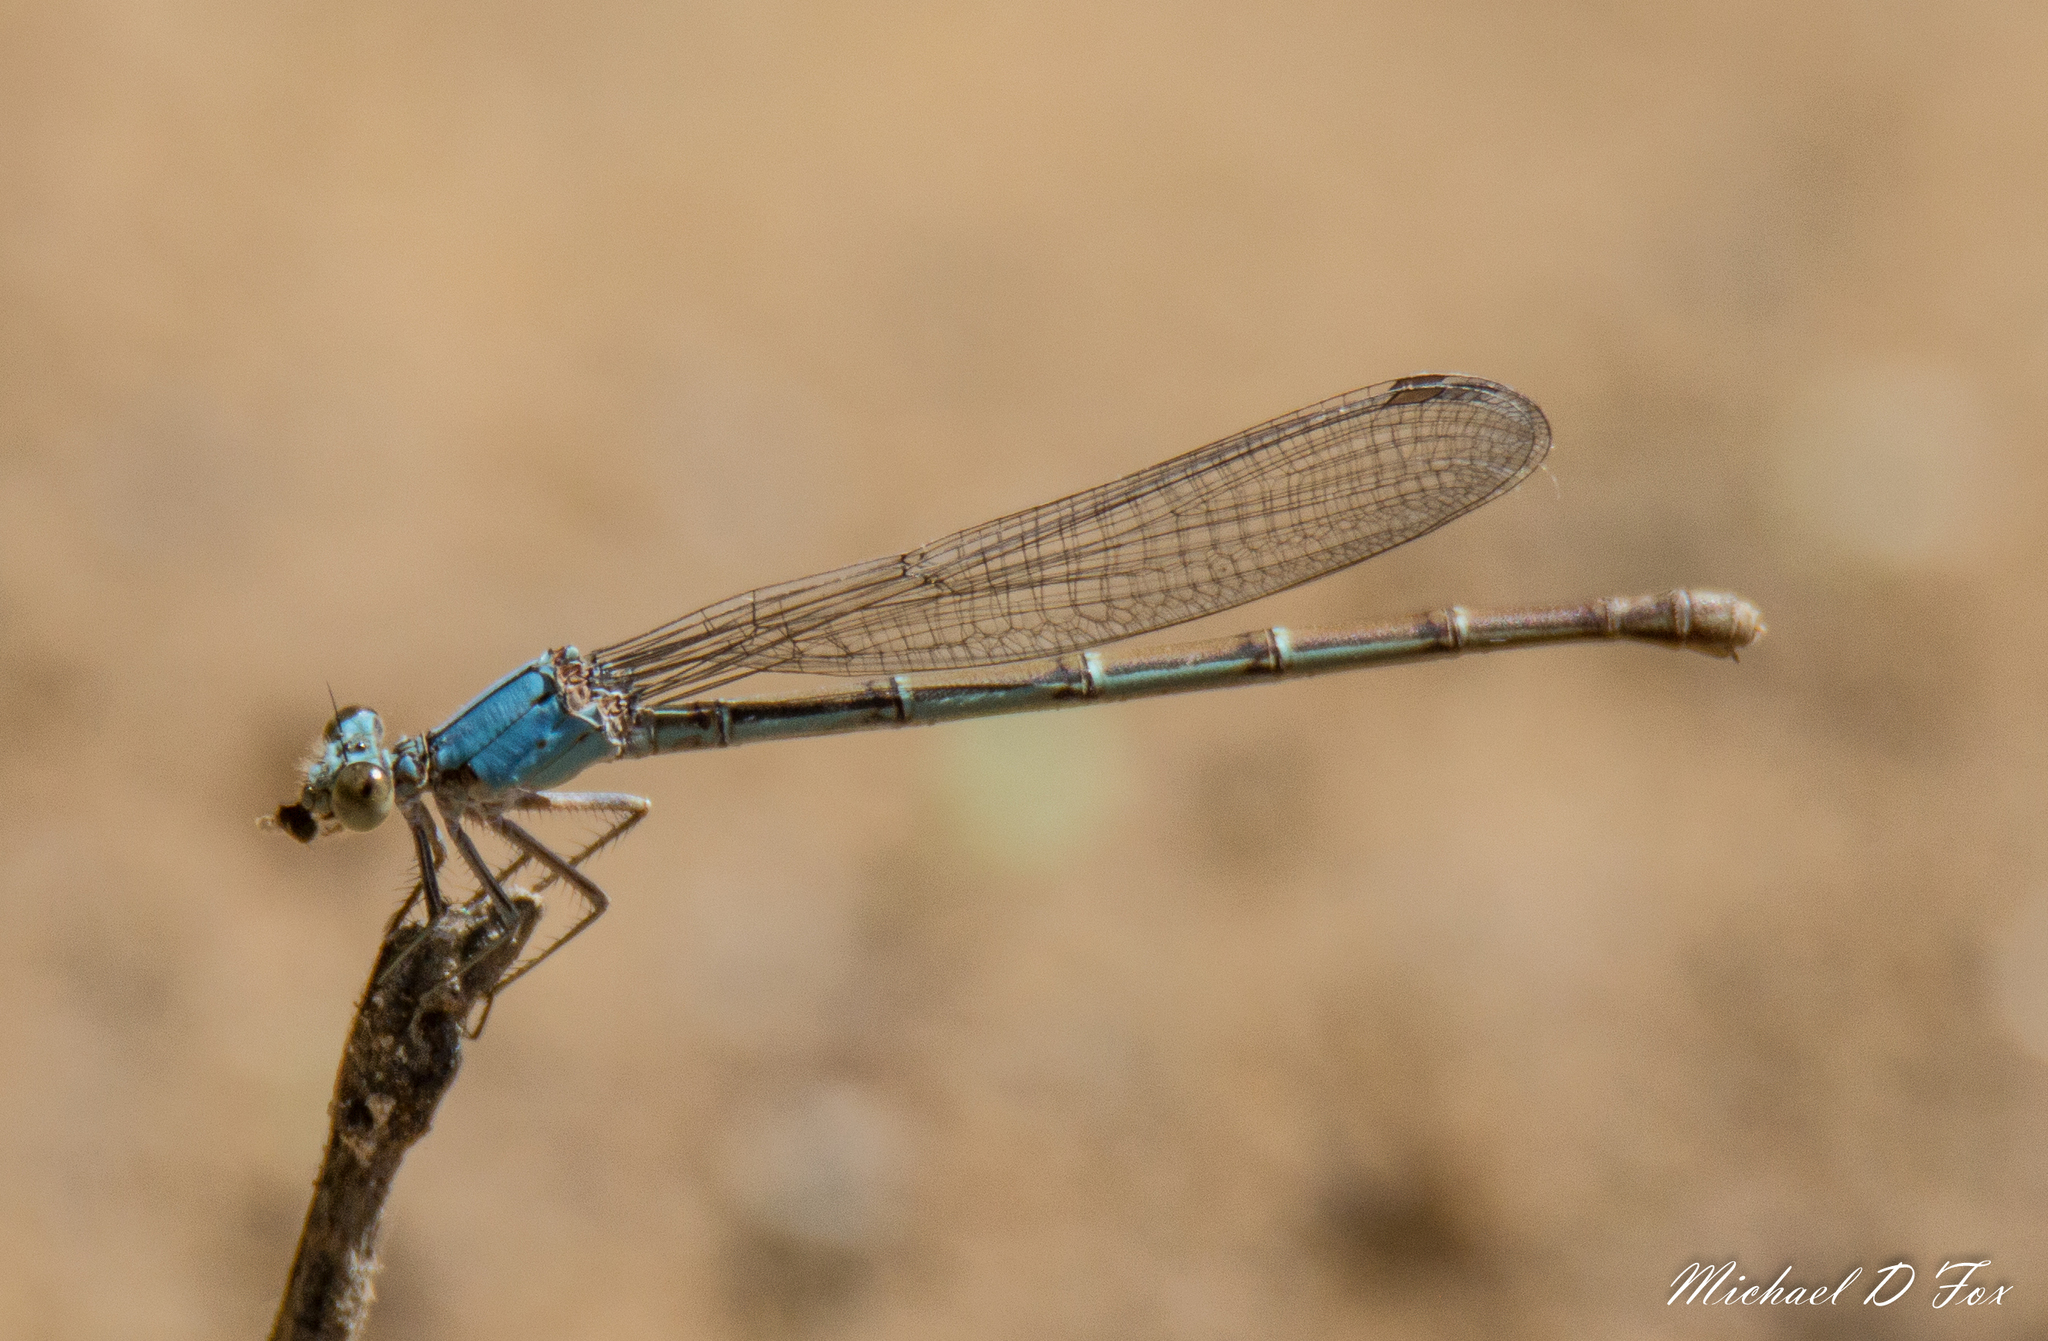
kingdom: Animalia
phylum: Arthropoda
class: Insecta
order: Odonata
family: Coenagrionidae
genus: Argia
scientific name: Argia moesta
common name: Powdered dancer
